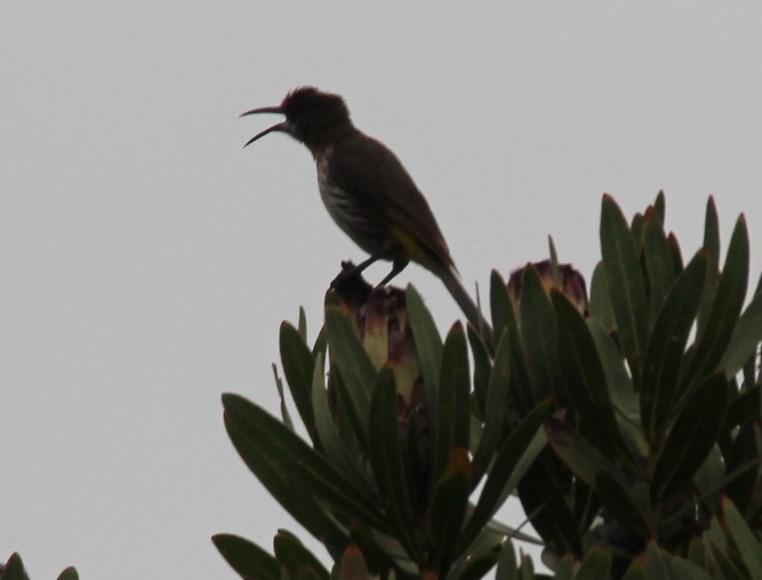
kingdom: Animalia
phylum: Chordata
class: Aves
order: Passeriformes
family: Promeropidae
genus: Promerops
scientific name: Promerops cafer
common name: Cape sugarbird
